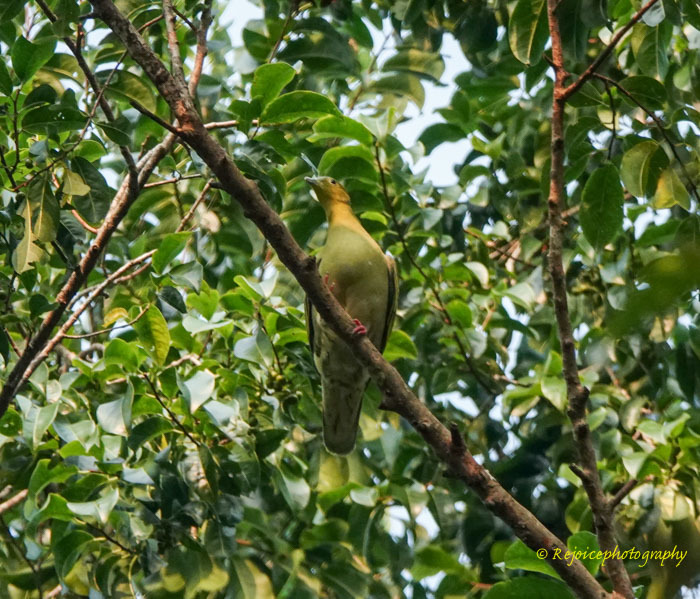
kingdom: Animalia
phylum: Chordata
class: Aves
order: Columbiformes
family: Columbidae
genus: Treron
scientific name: Treron phayrei
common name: Ashy-headed green pigeon
